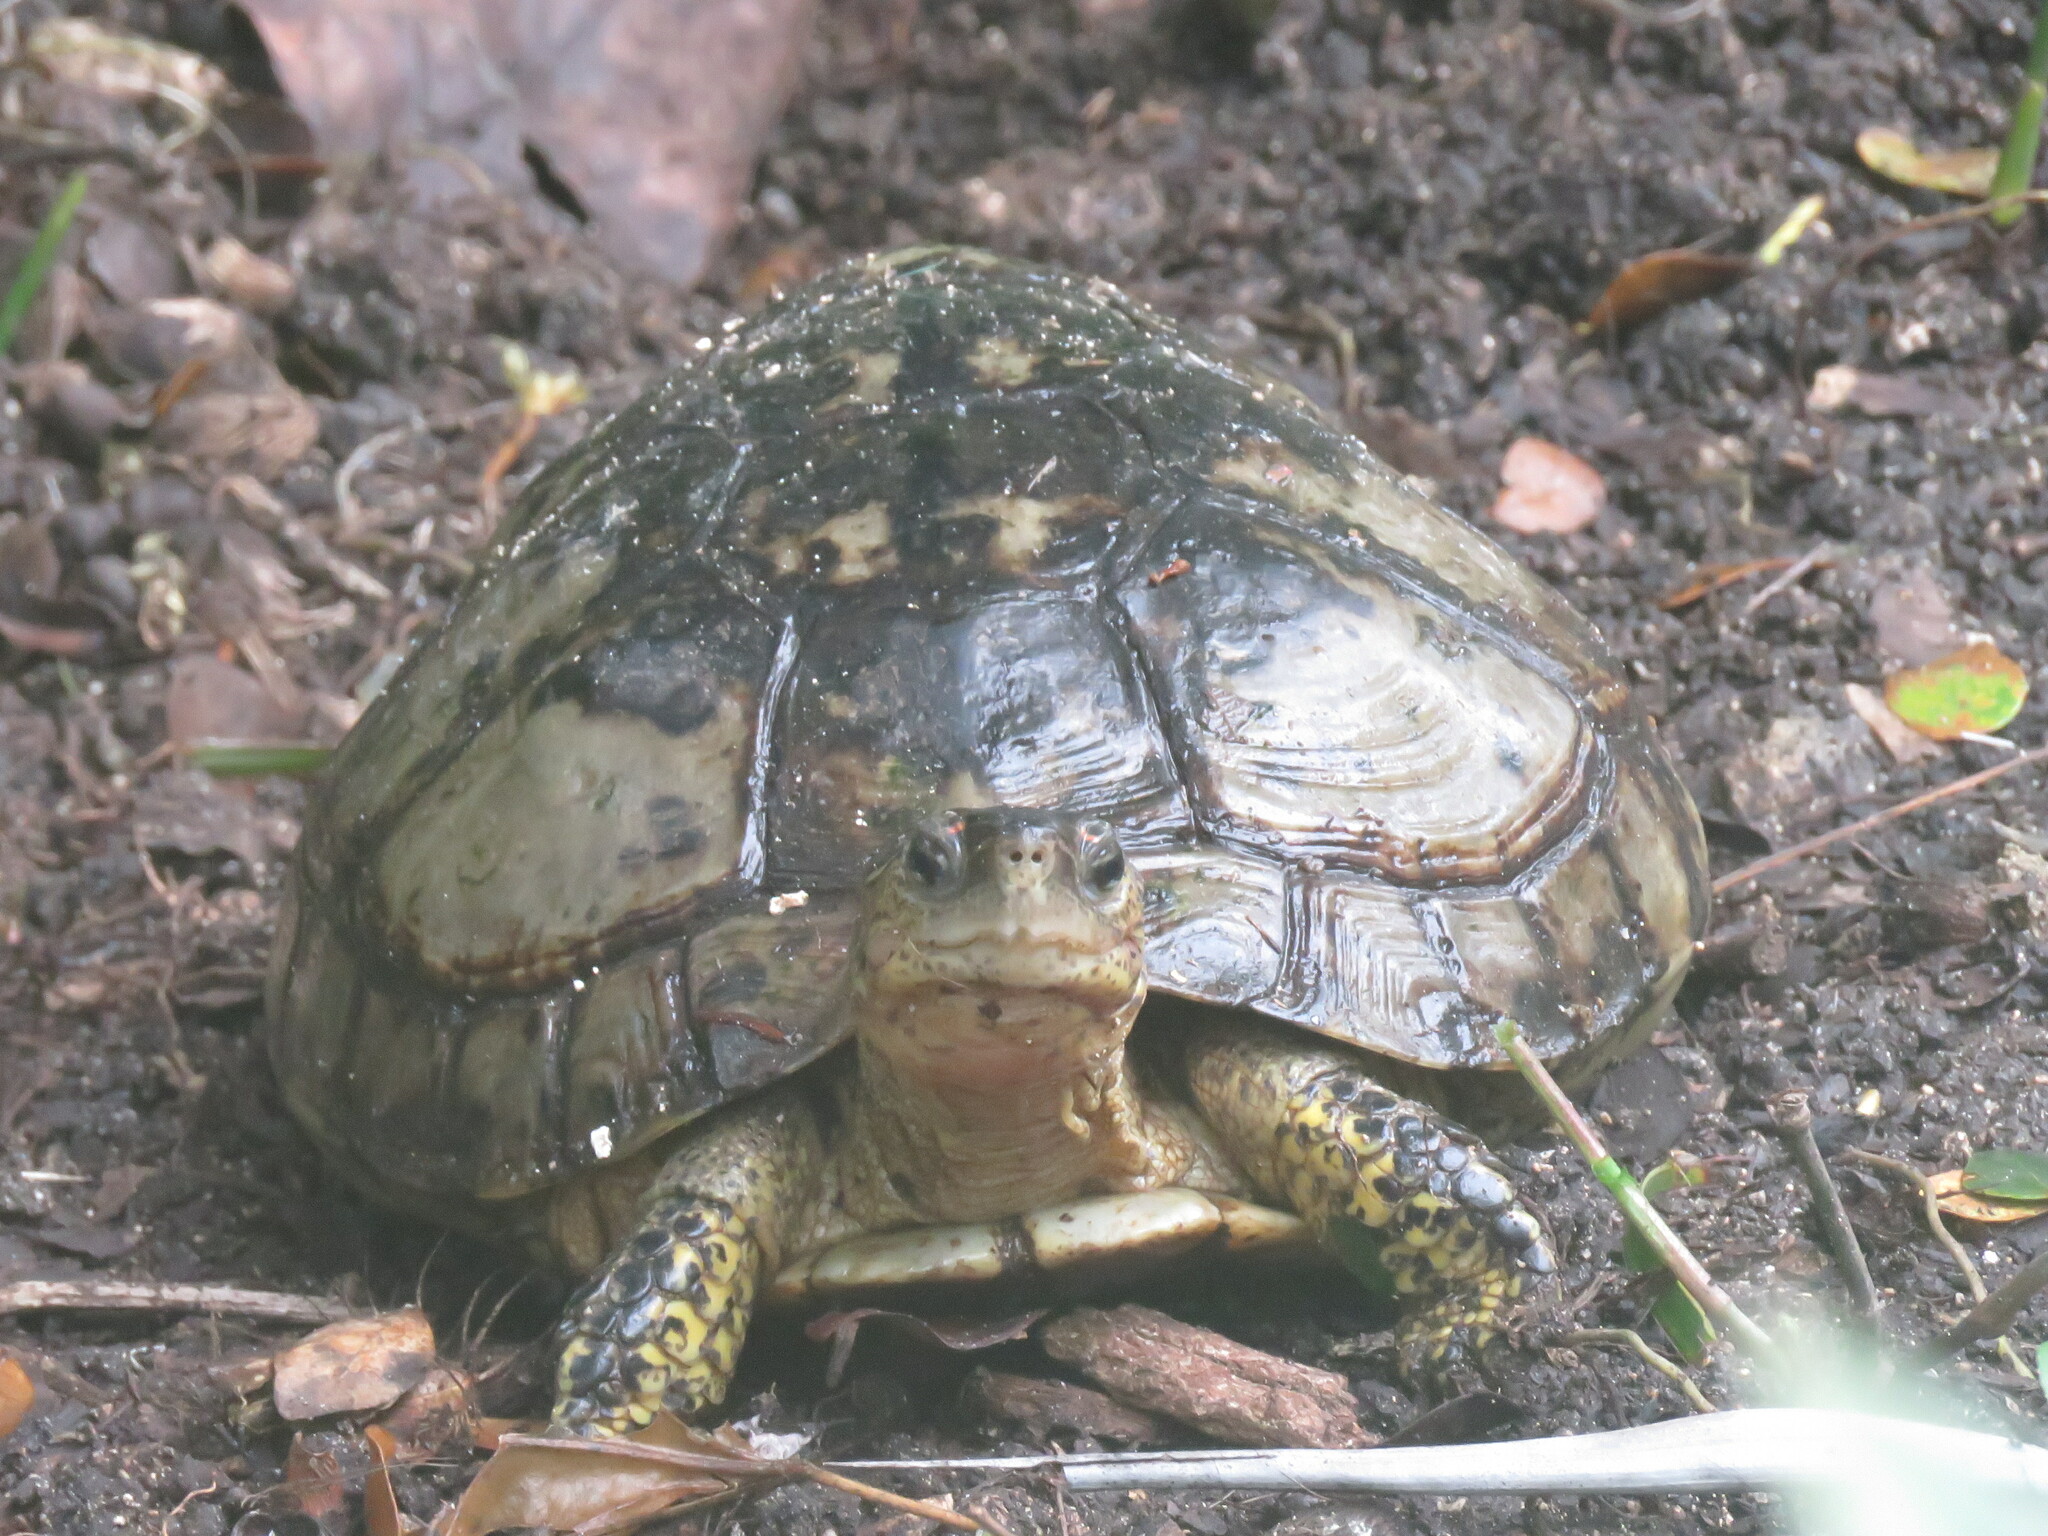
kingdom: Animalia
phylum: Chordata
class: Testudines
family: Geoemydidae
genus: Rhinoclemmys
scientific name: Rhinoclemmys areolata
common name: Furrowed wood turtle
